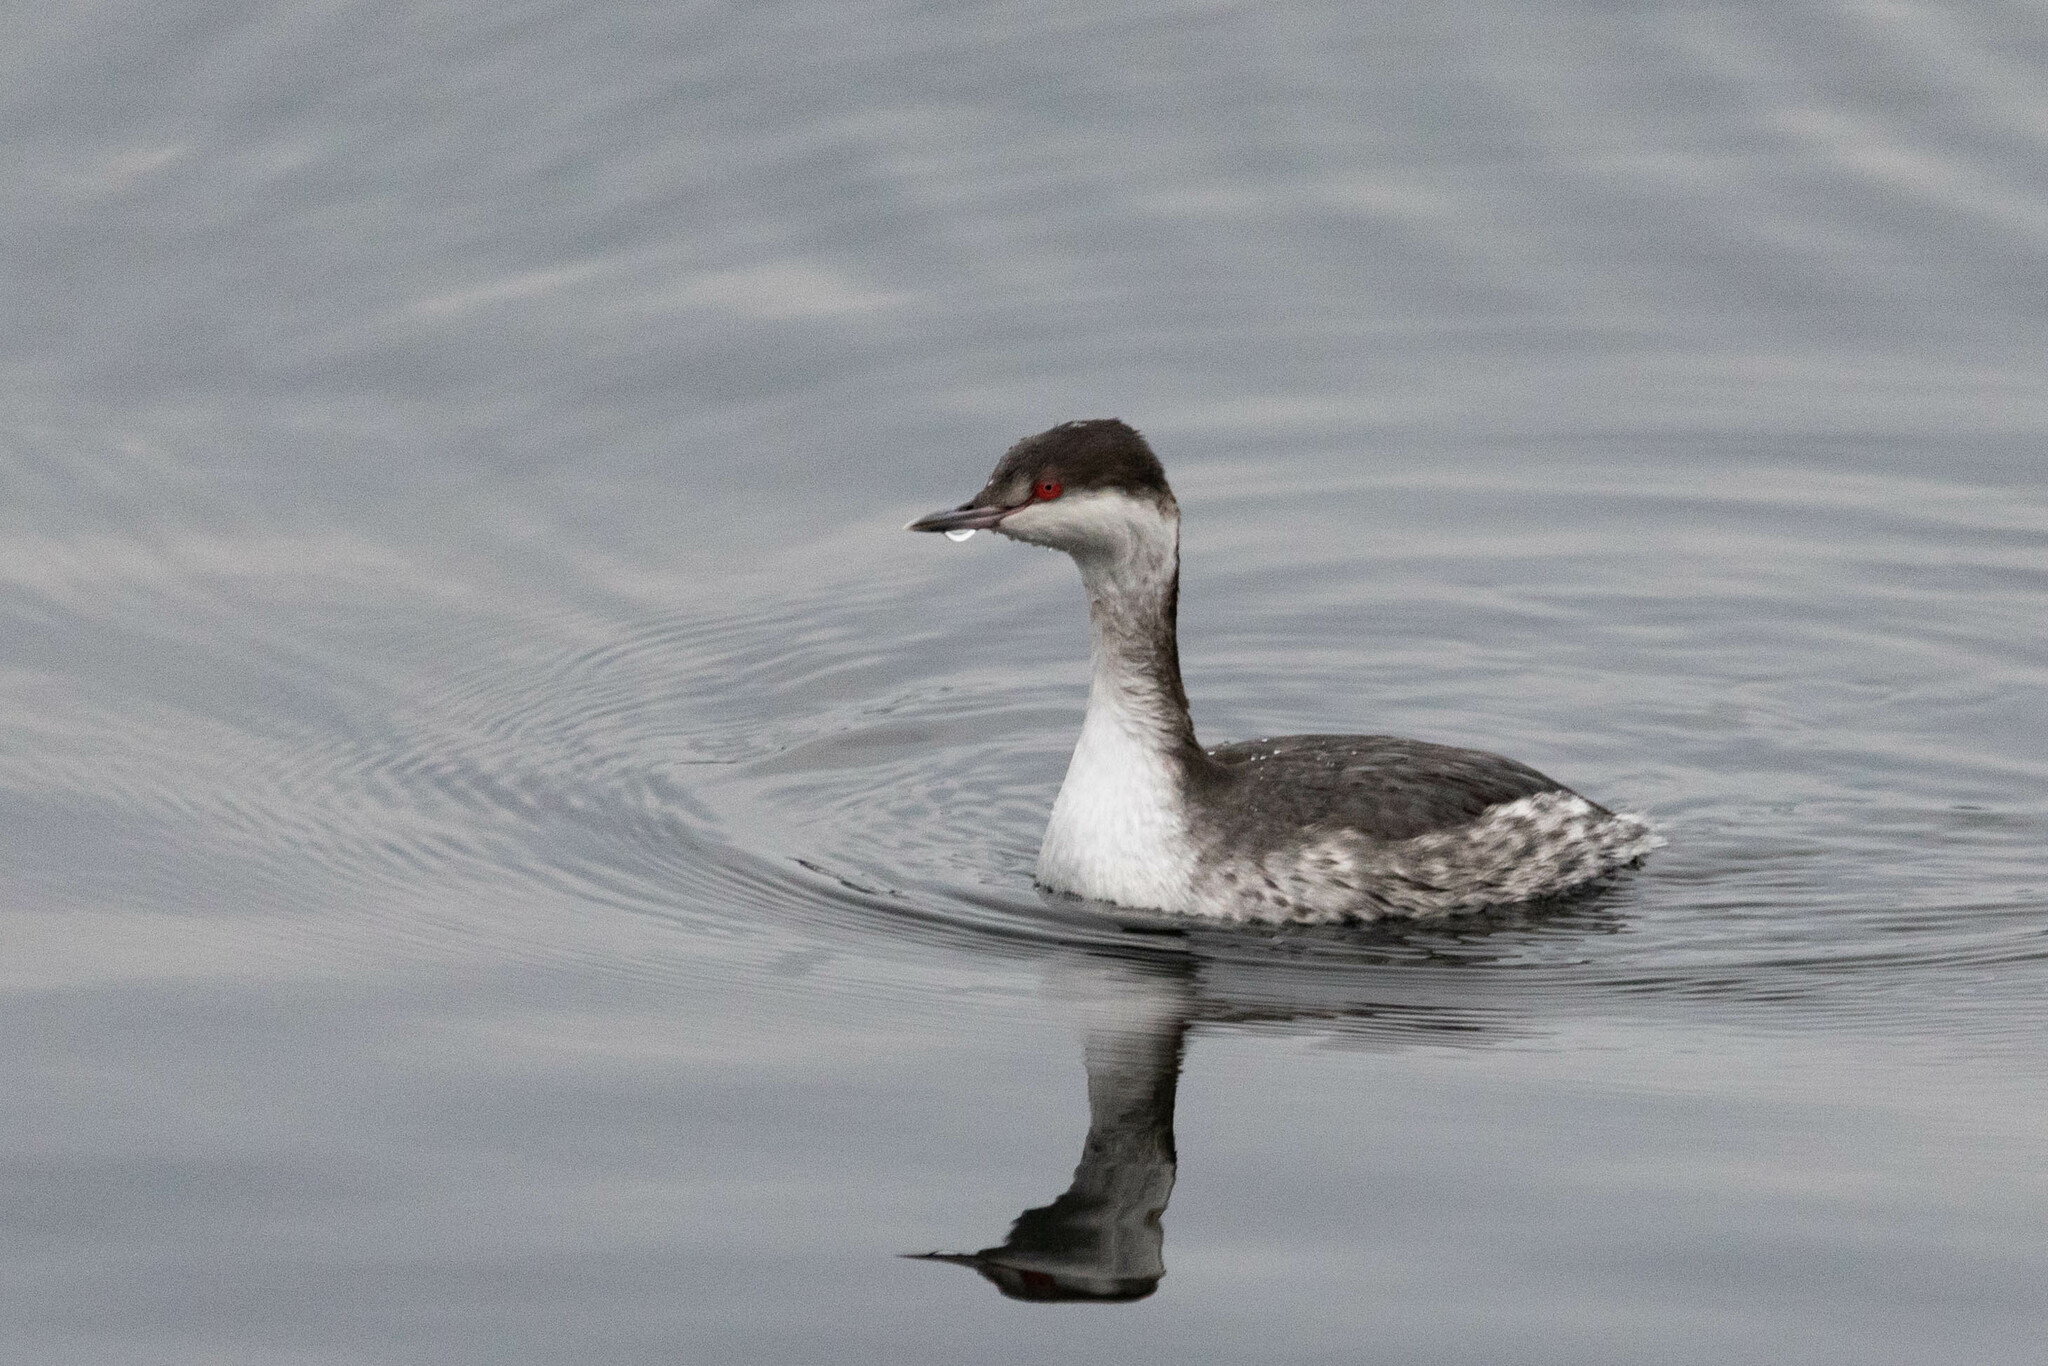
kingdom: Animalia
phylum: Chordata
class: Aves
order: Podicipediformes
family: Podicipedidae
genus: Podiceps
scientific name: Podiceps auritus
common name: Horned grebe
